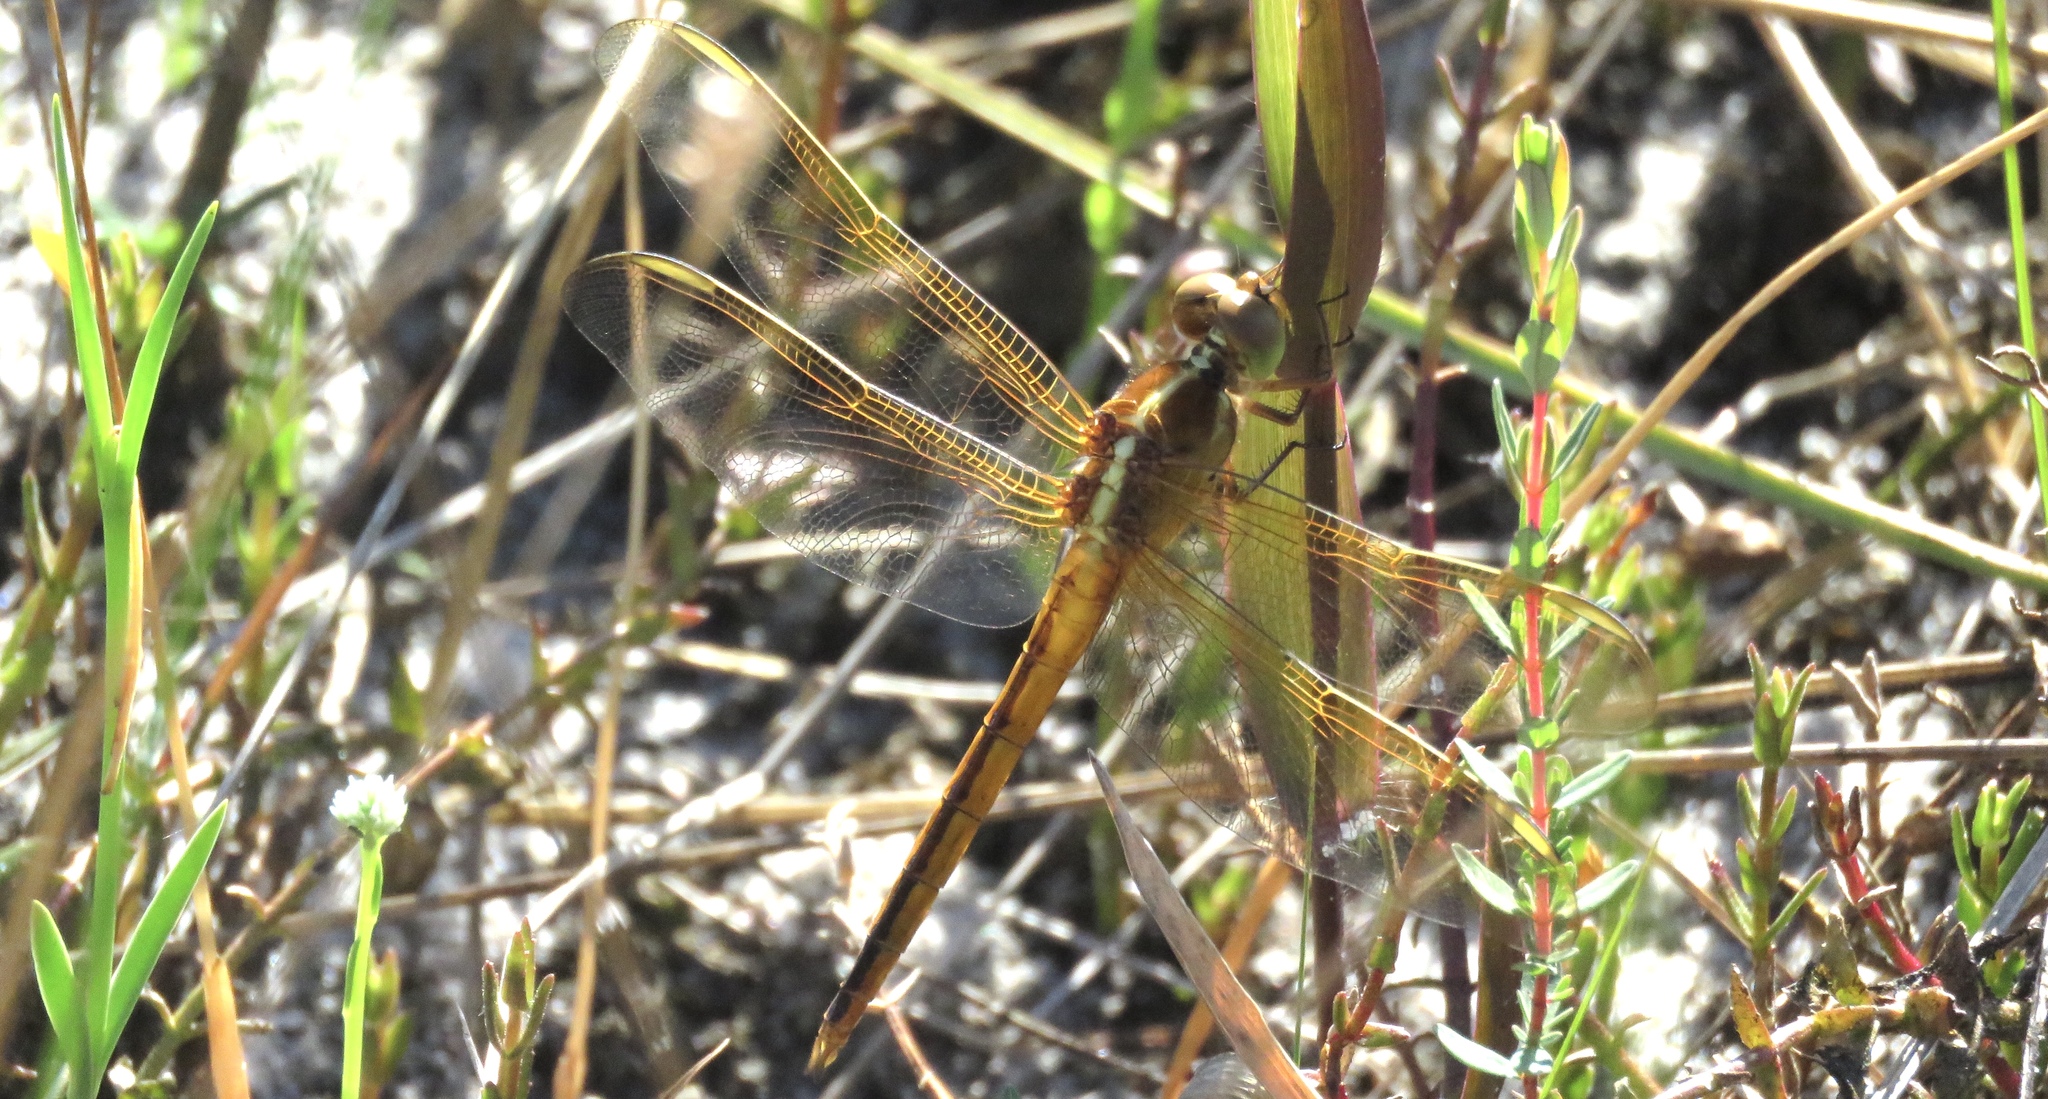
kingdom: Animalia
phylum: Arthropoda
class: Insecta
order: Odonata
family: Libellulidae
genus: Libellula
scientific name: Libellula needhami
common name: Needham's skimmer
